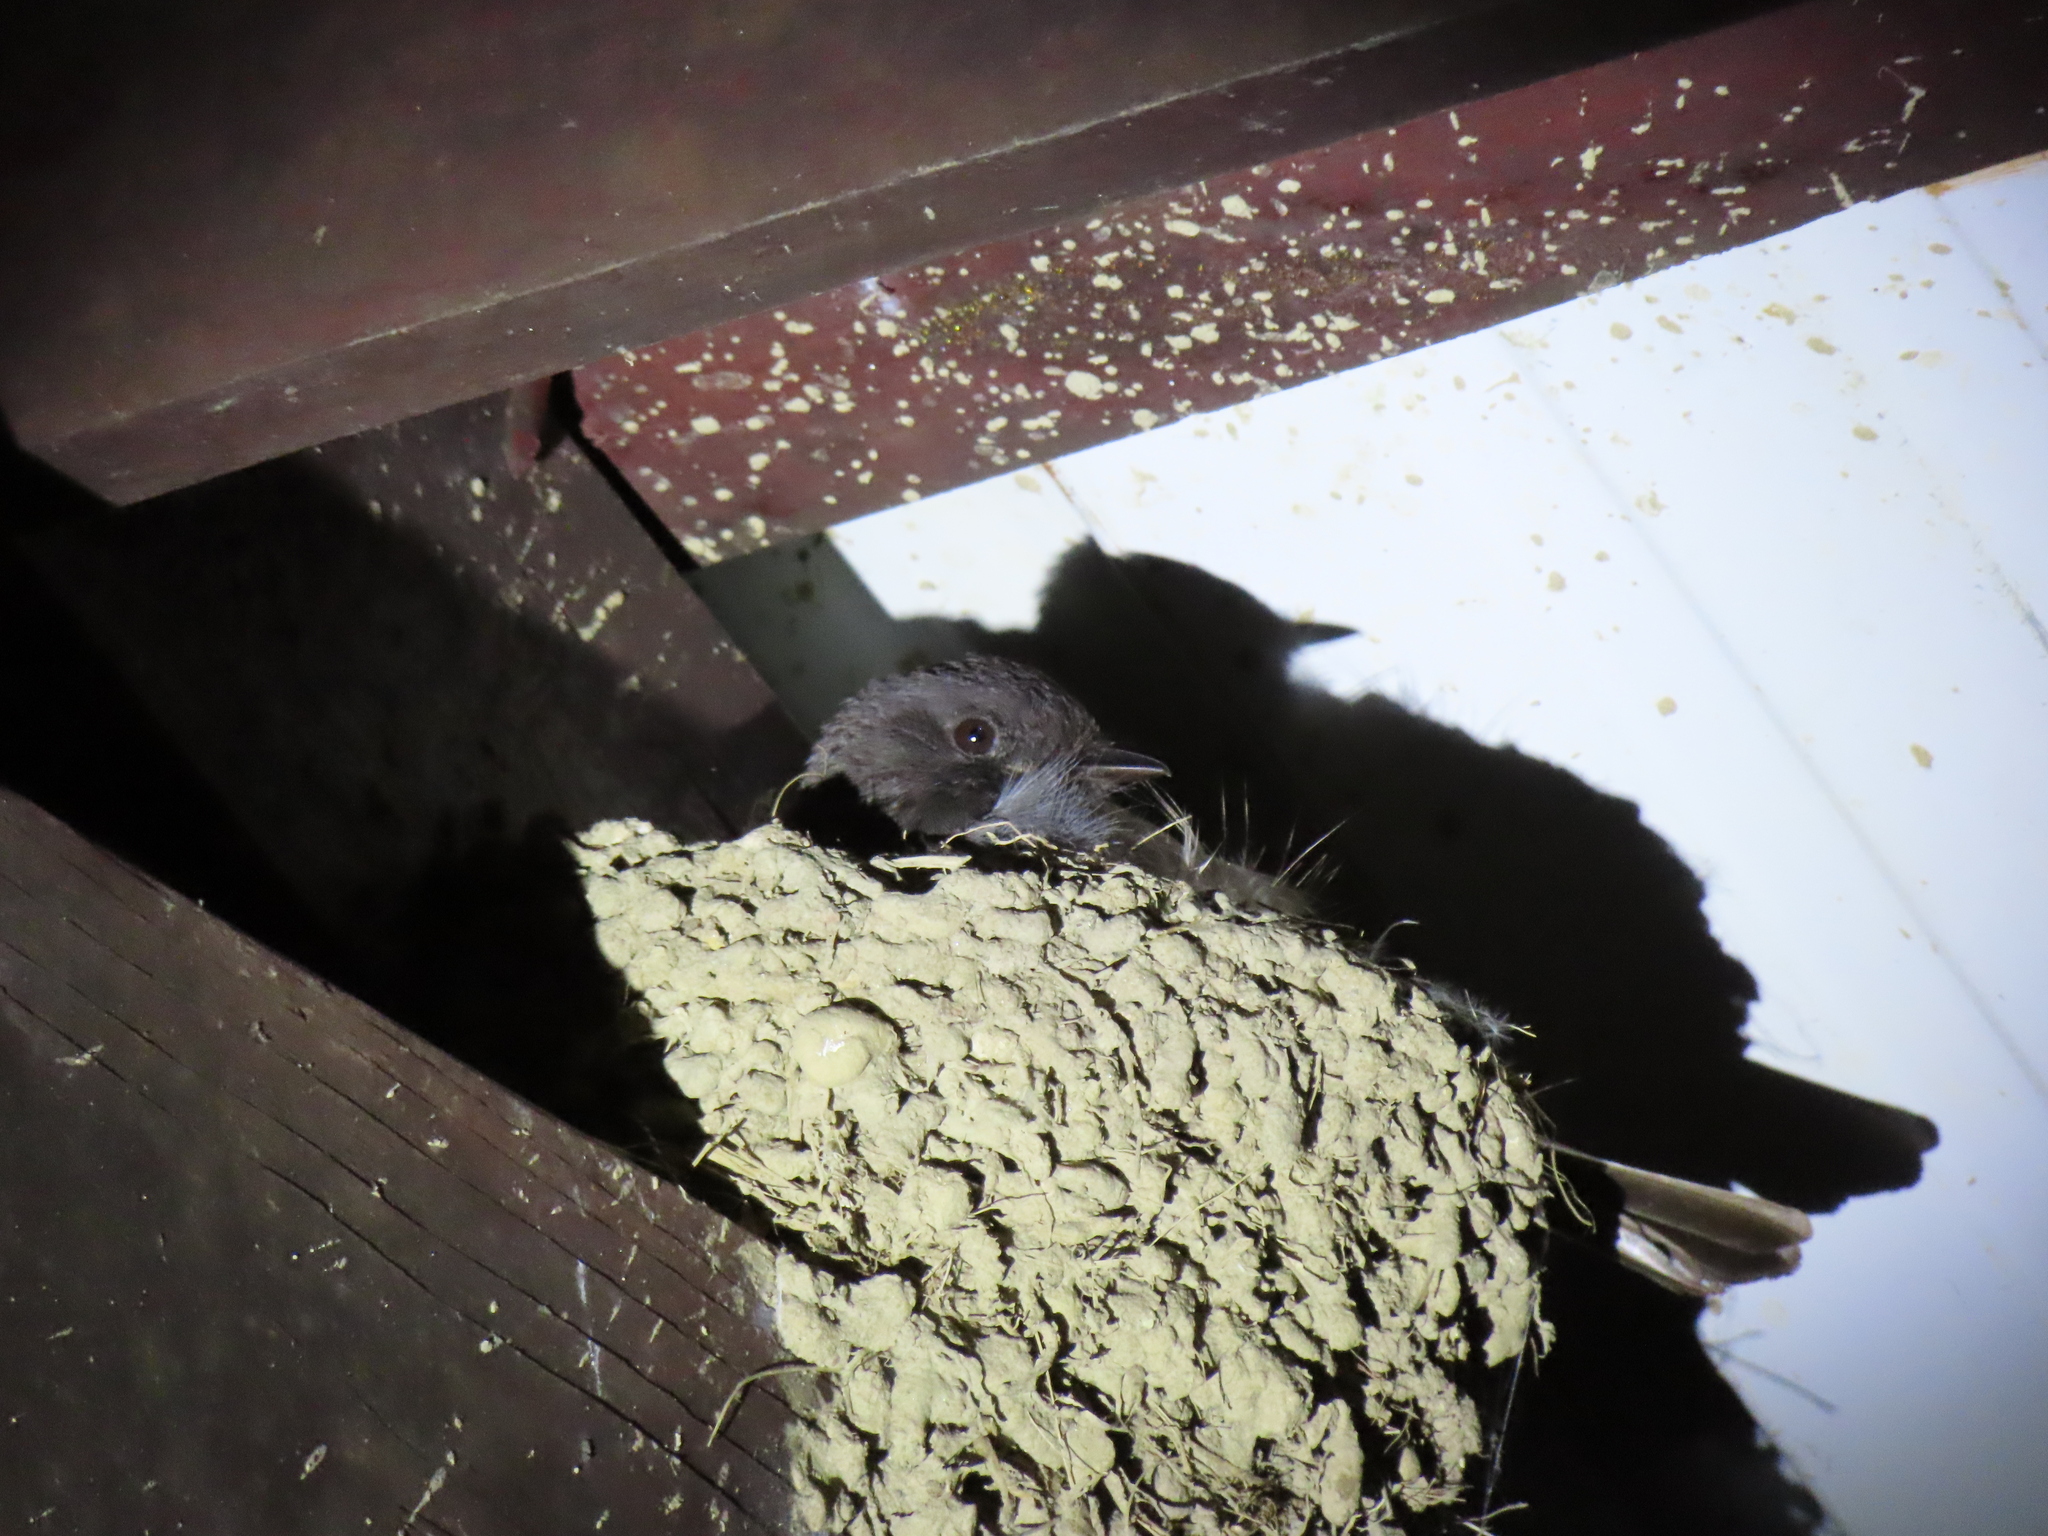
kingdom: Animalia
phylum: Chordata
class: Aves
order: Passeriformes
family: Tyrannidae
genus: Sayornis
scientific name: Sayornis nigricans
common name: Black phoebe
